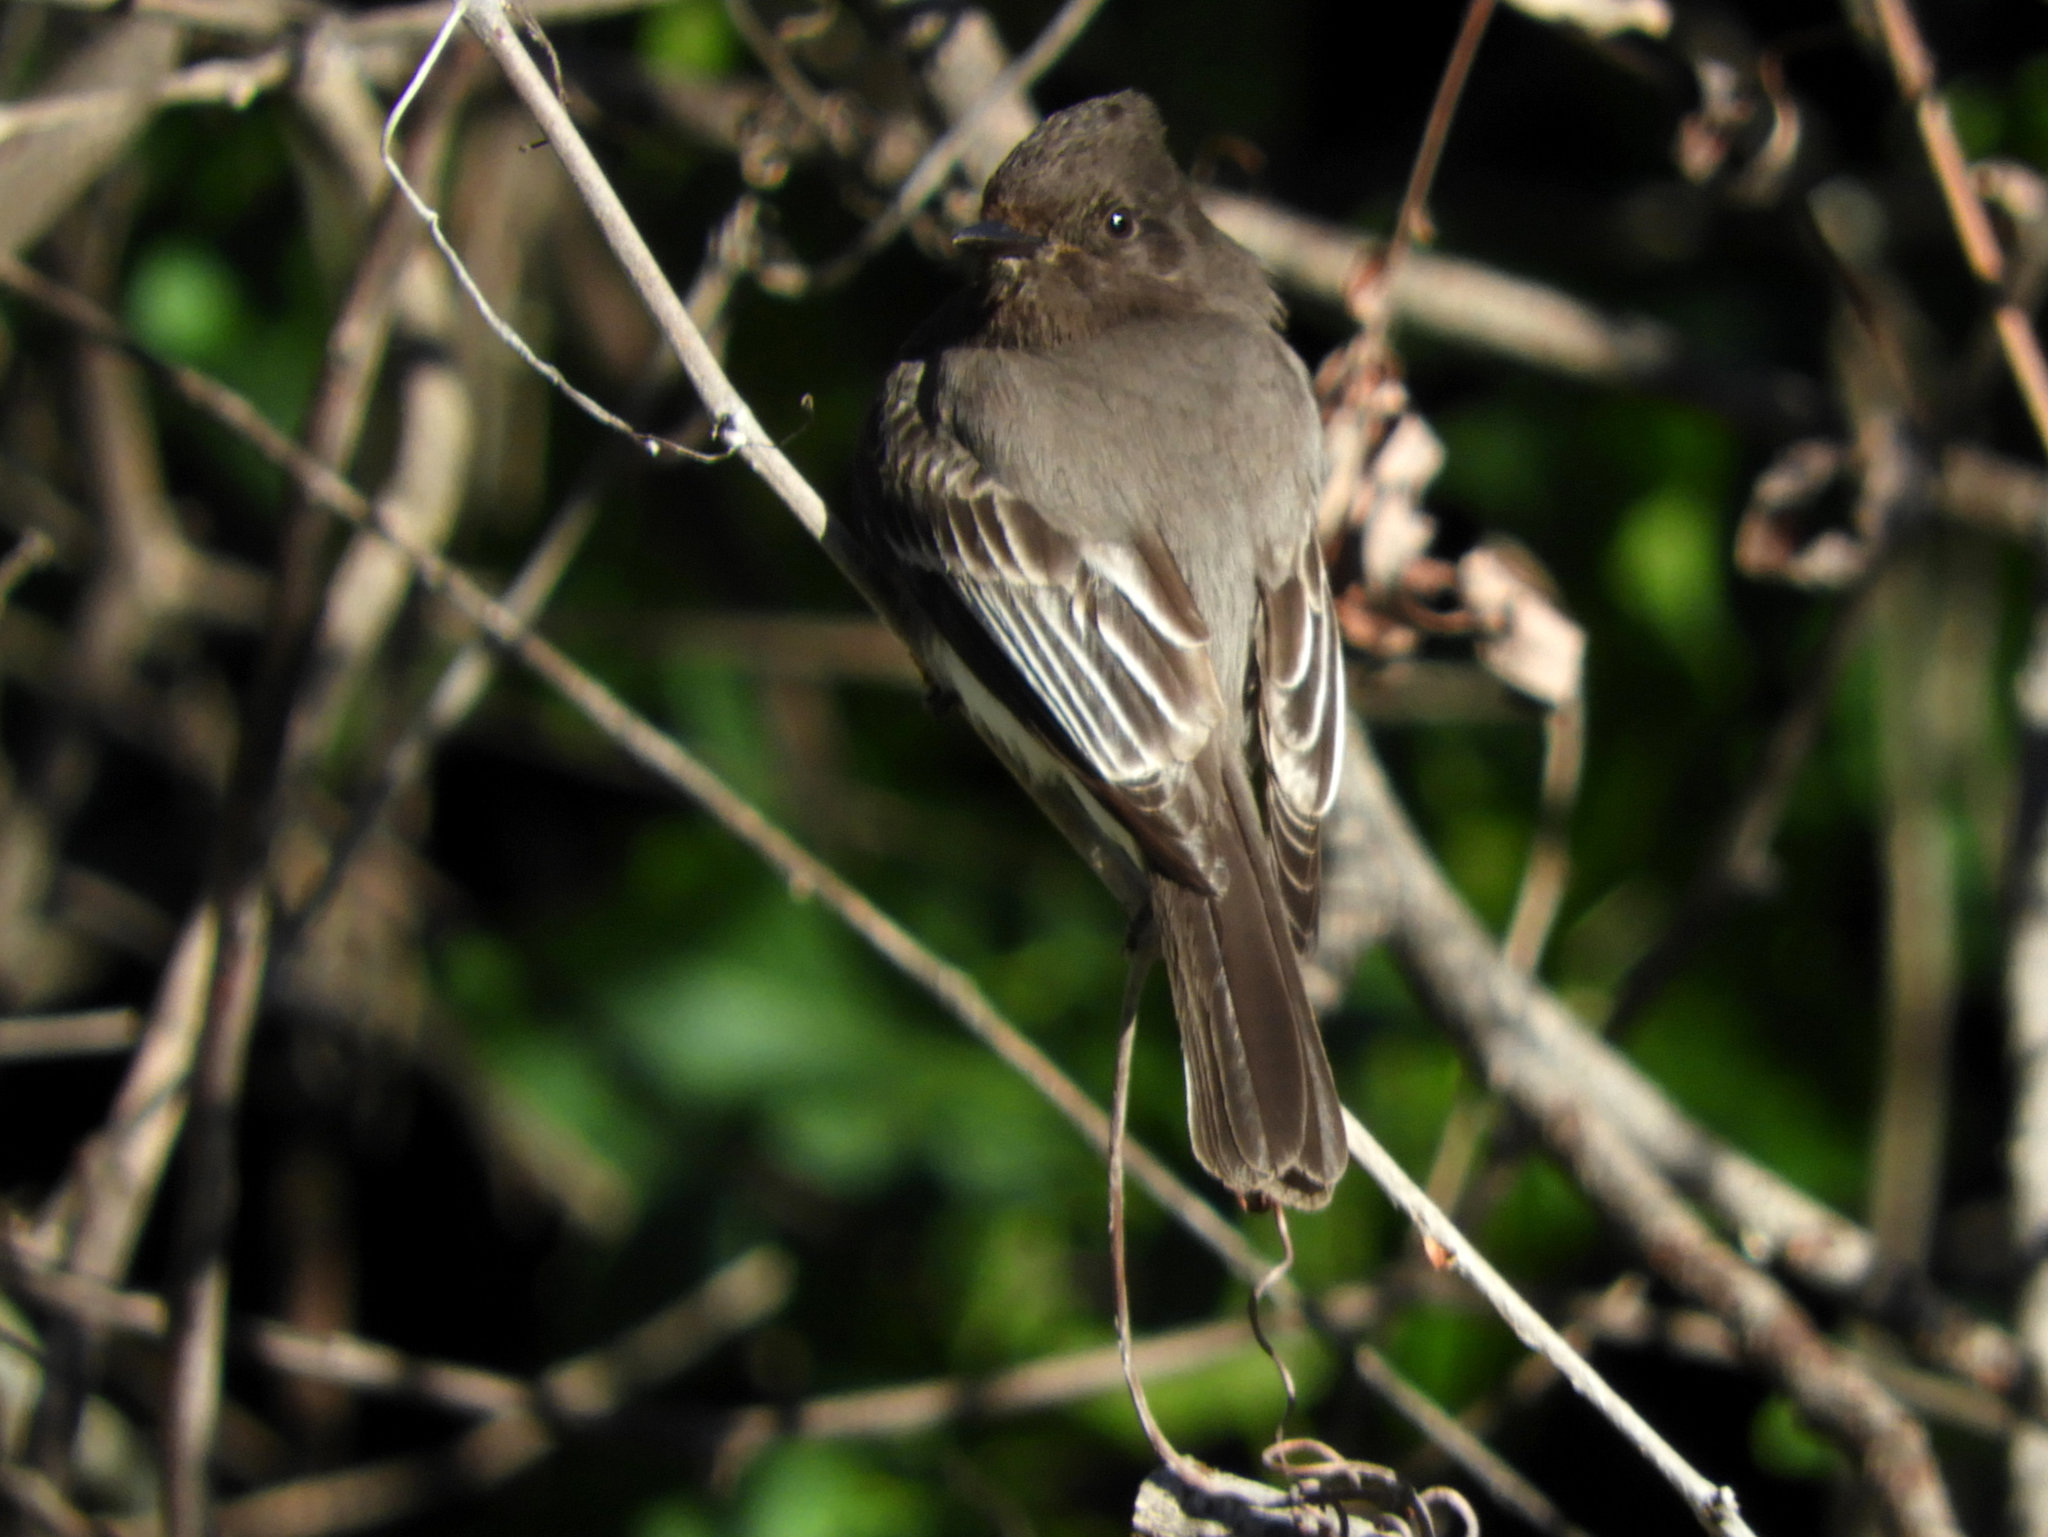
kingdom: Animalia
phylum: Chordata
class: Aves
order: Passeriformes
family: Tyrannidae
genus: Sayornis
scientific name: Sayornis nigricans
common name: Black phoebe
